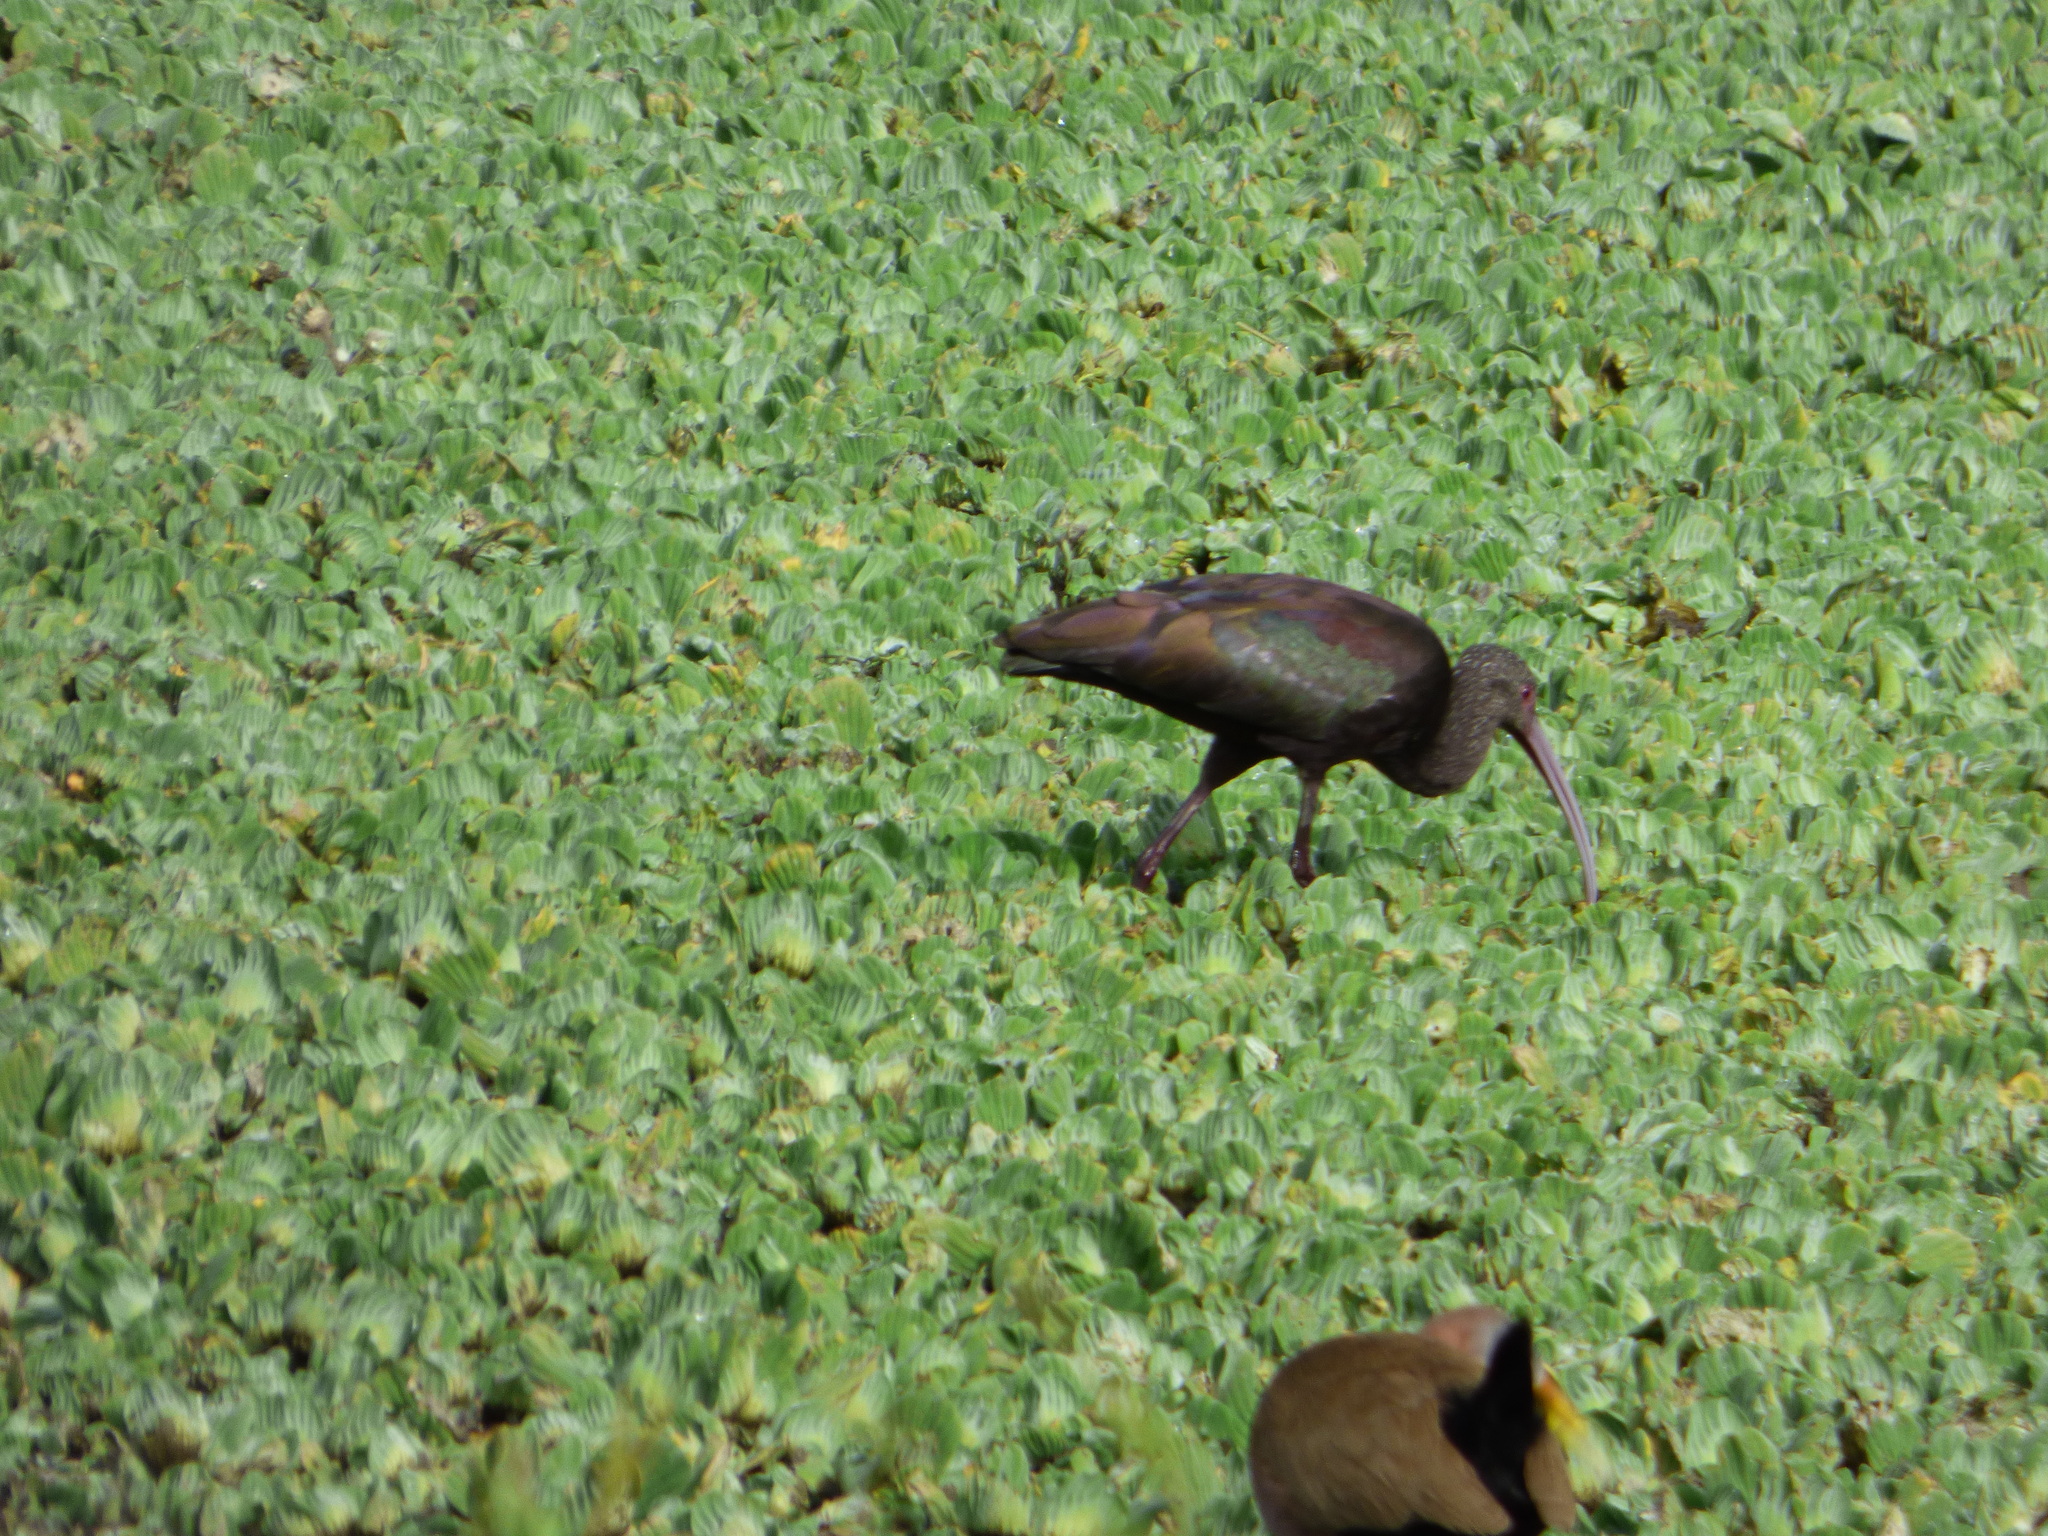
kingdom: Animalia
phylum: Chordata
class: Aves
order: Pelecaniformes
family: Threskiornithidae
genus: Plegadis
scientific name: Plegadis chihi
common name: White-faced ibis
